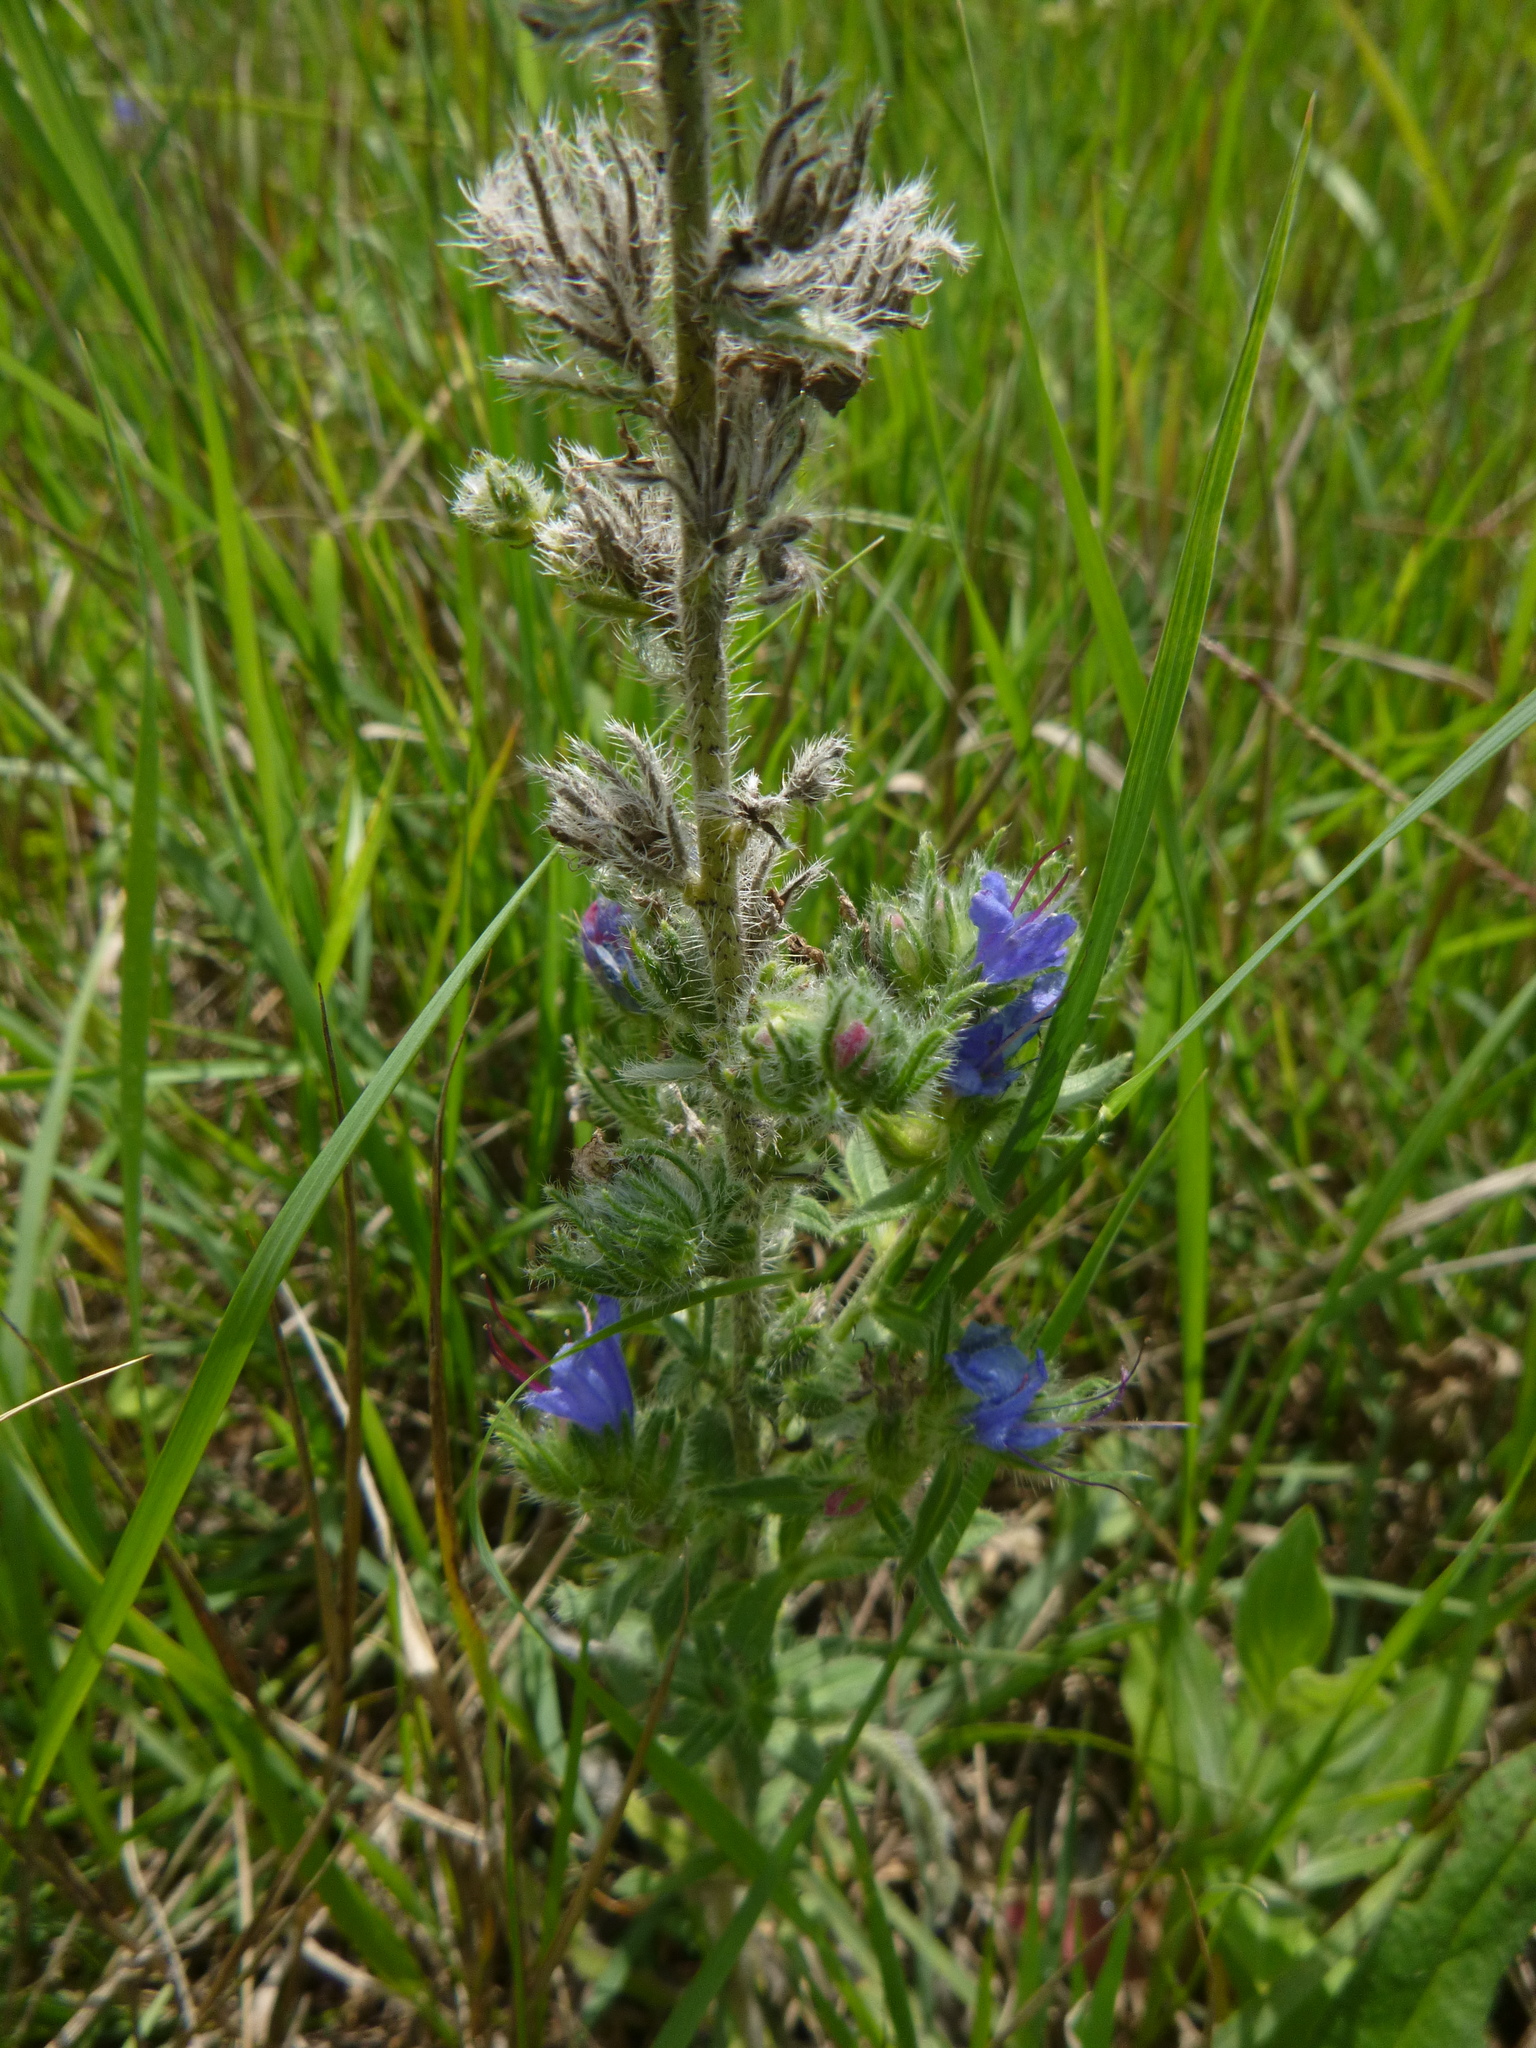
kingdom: Plantae
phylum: Tracheophyta
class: Magnoliopsida
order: Boraginales
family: Boraginaceae
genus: Echium
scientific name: Echium vulgare
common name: Common viper's bugloss
